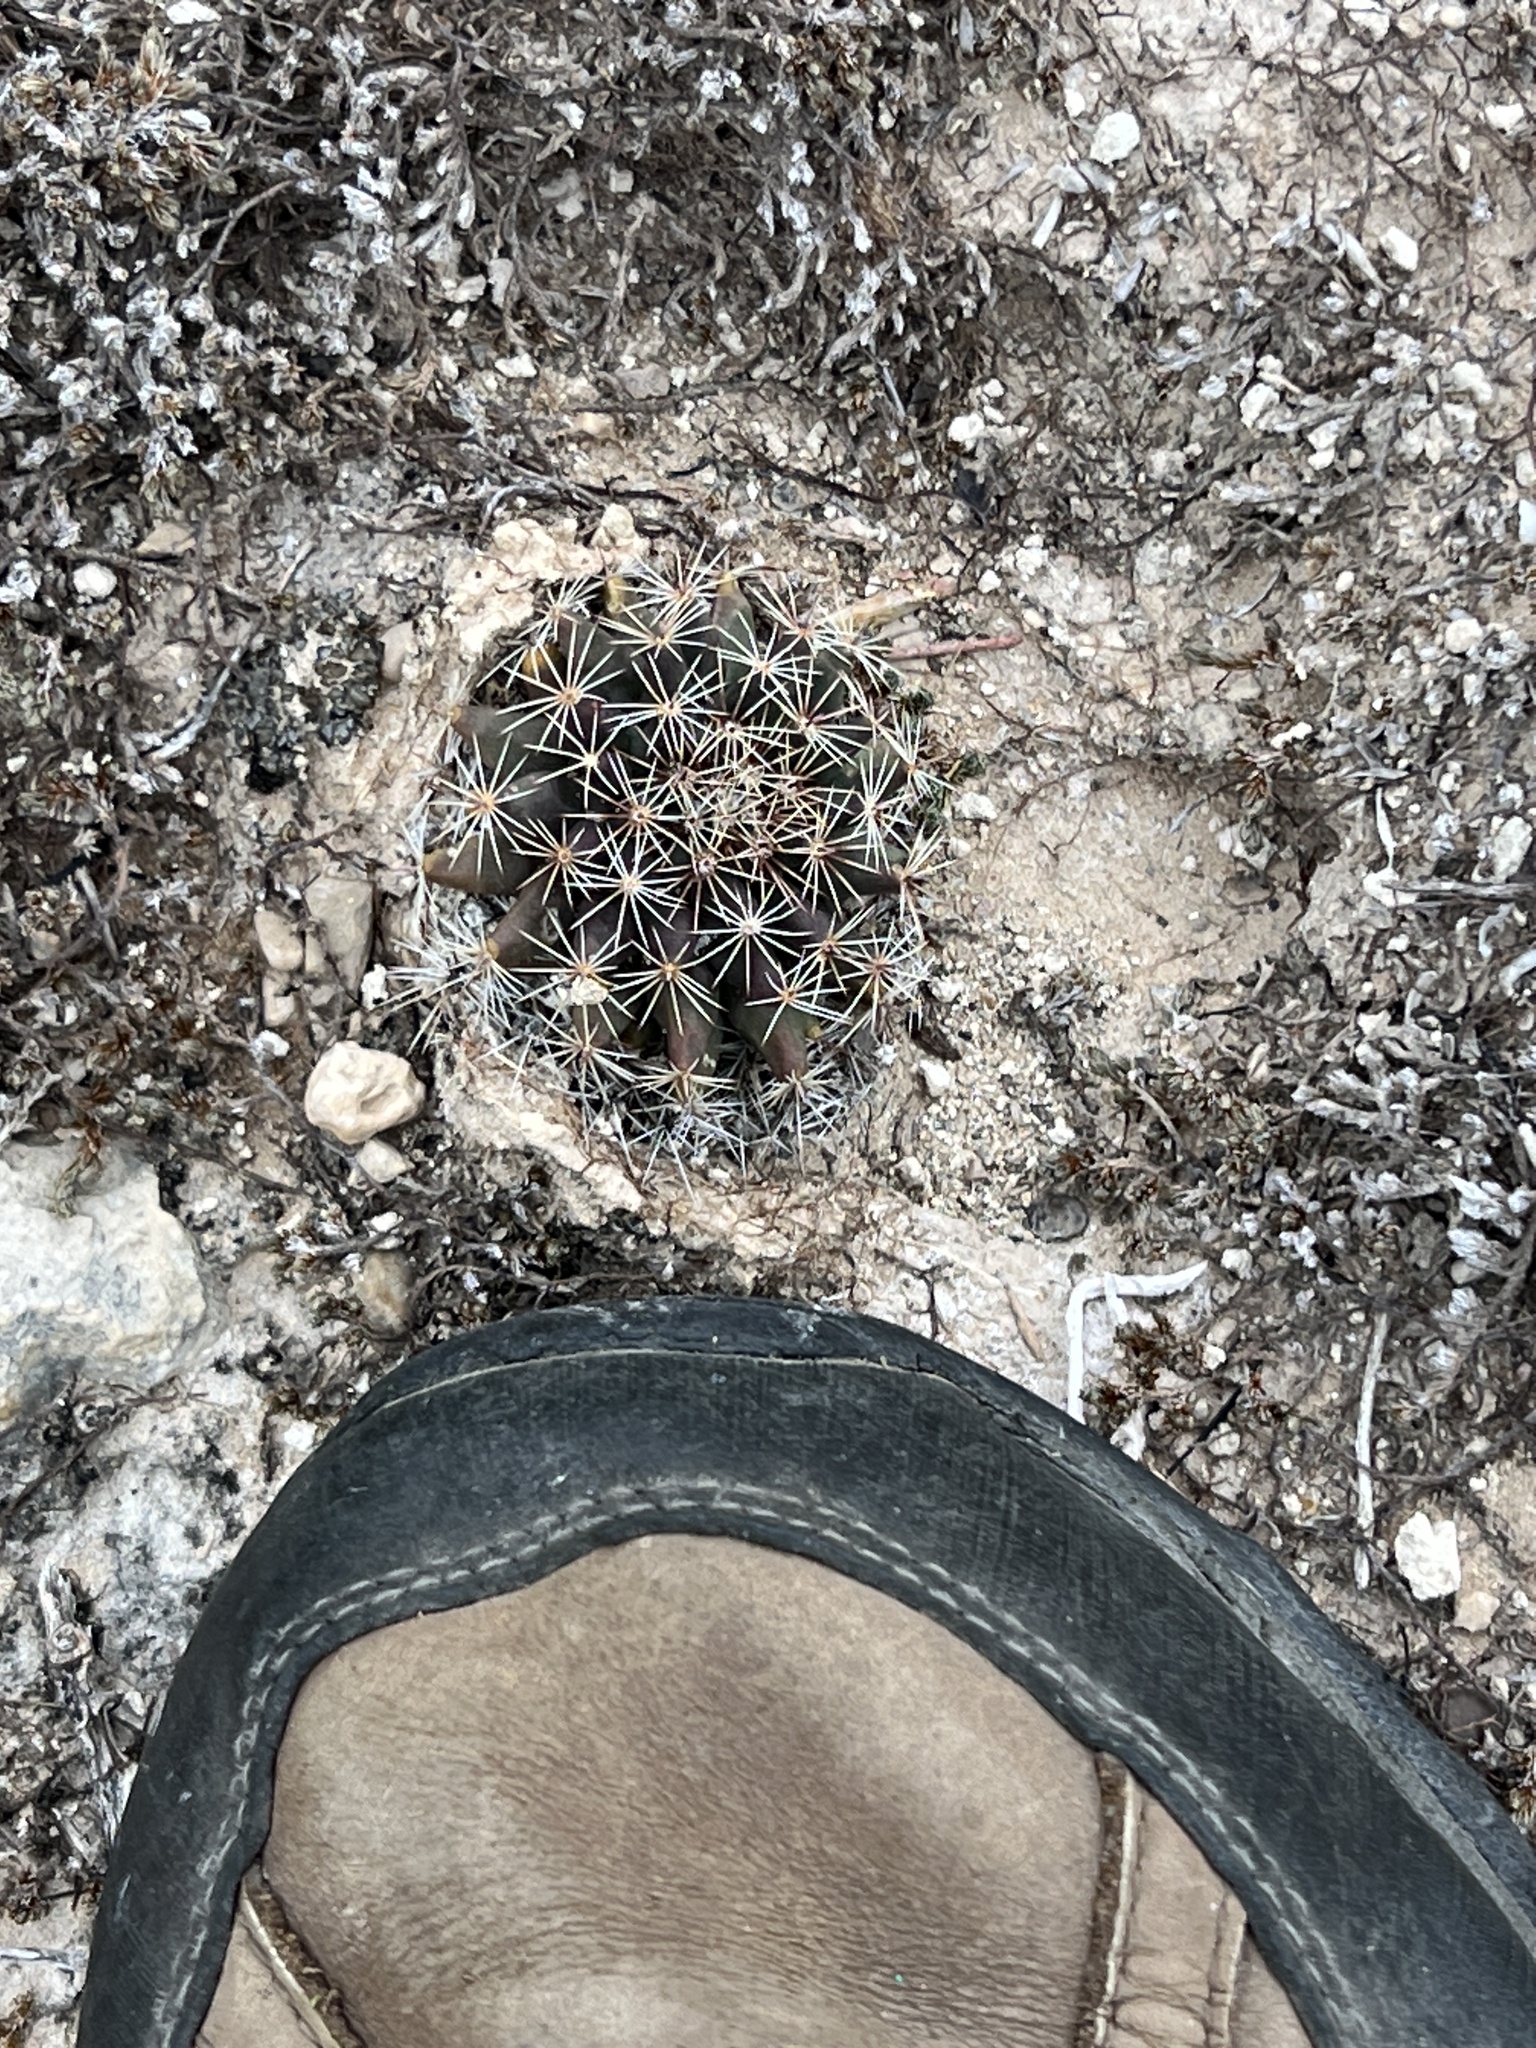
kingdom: Plantae
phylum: Tracheophyta
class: Magnoliopsida
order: Caryophyllales
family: Cactaceae
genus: Mammillaria
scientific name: Mammillaria heyderi
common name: Little nipple cactus
